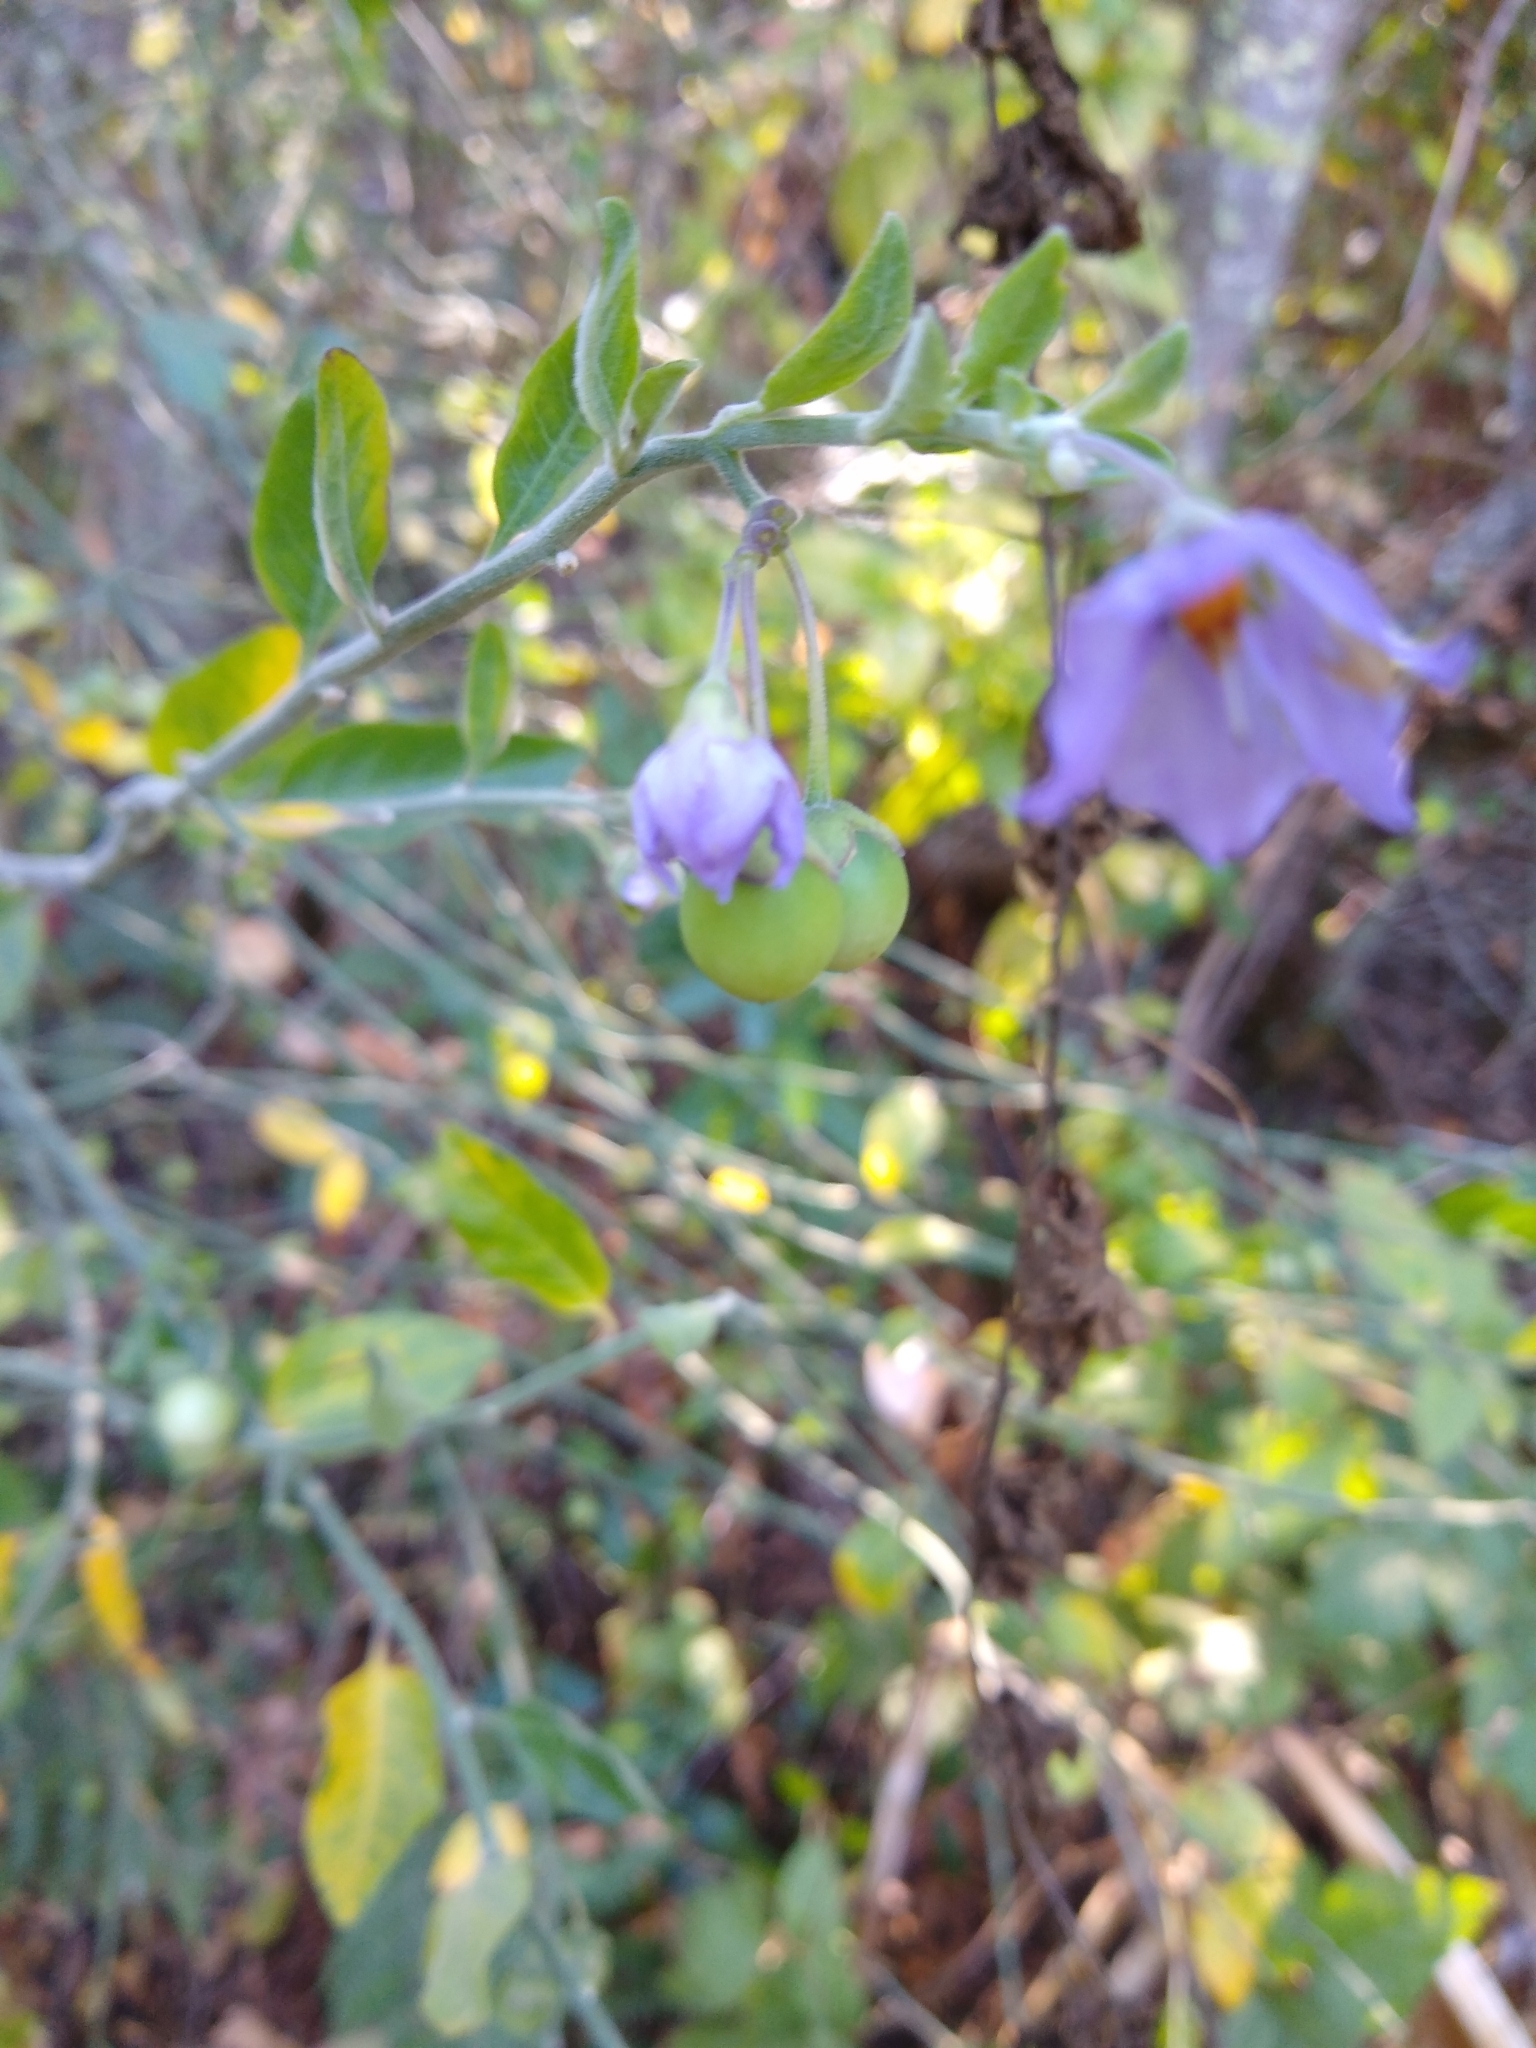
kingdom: Plantae
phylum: Tracheophyta
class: Magnoliopsida
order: Solanales
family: Solanaceae
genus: Solanum
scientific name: Solanum umbelliferum
